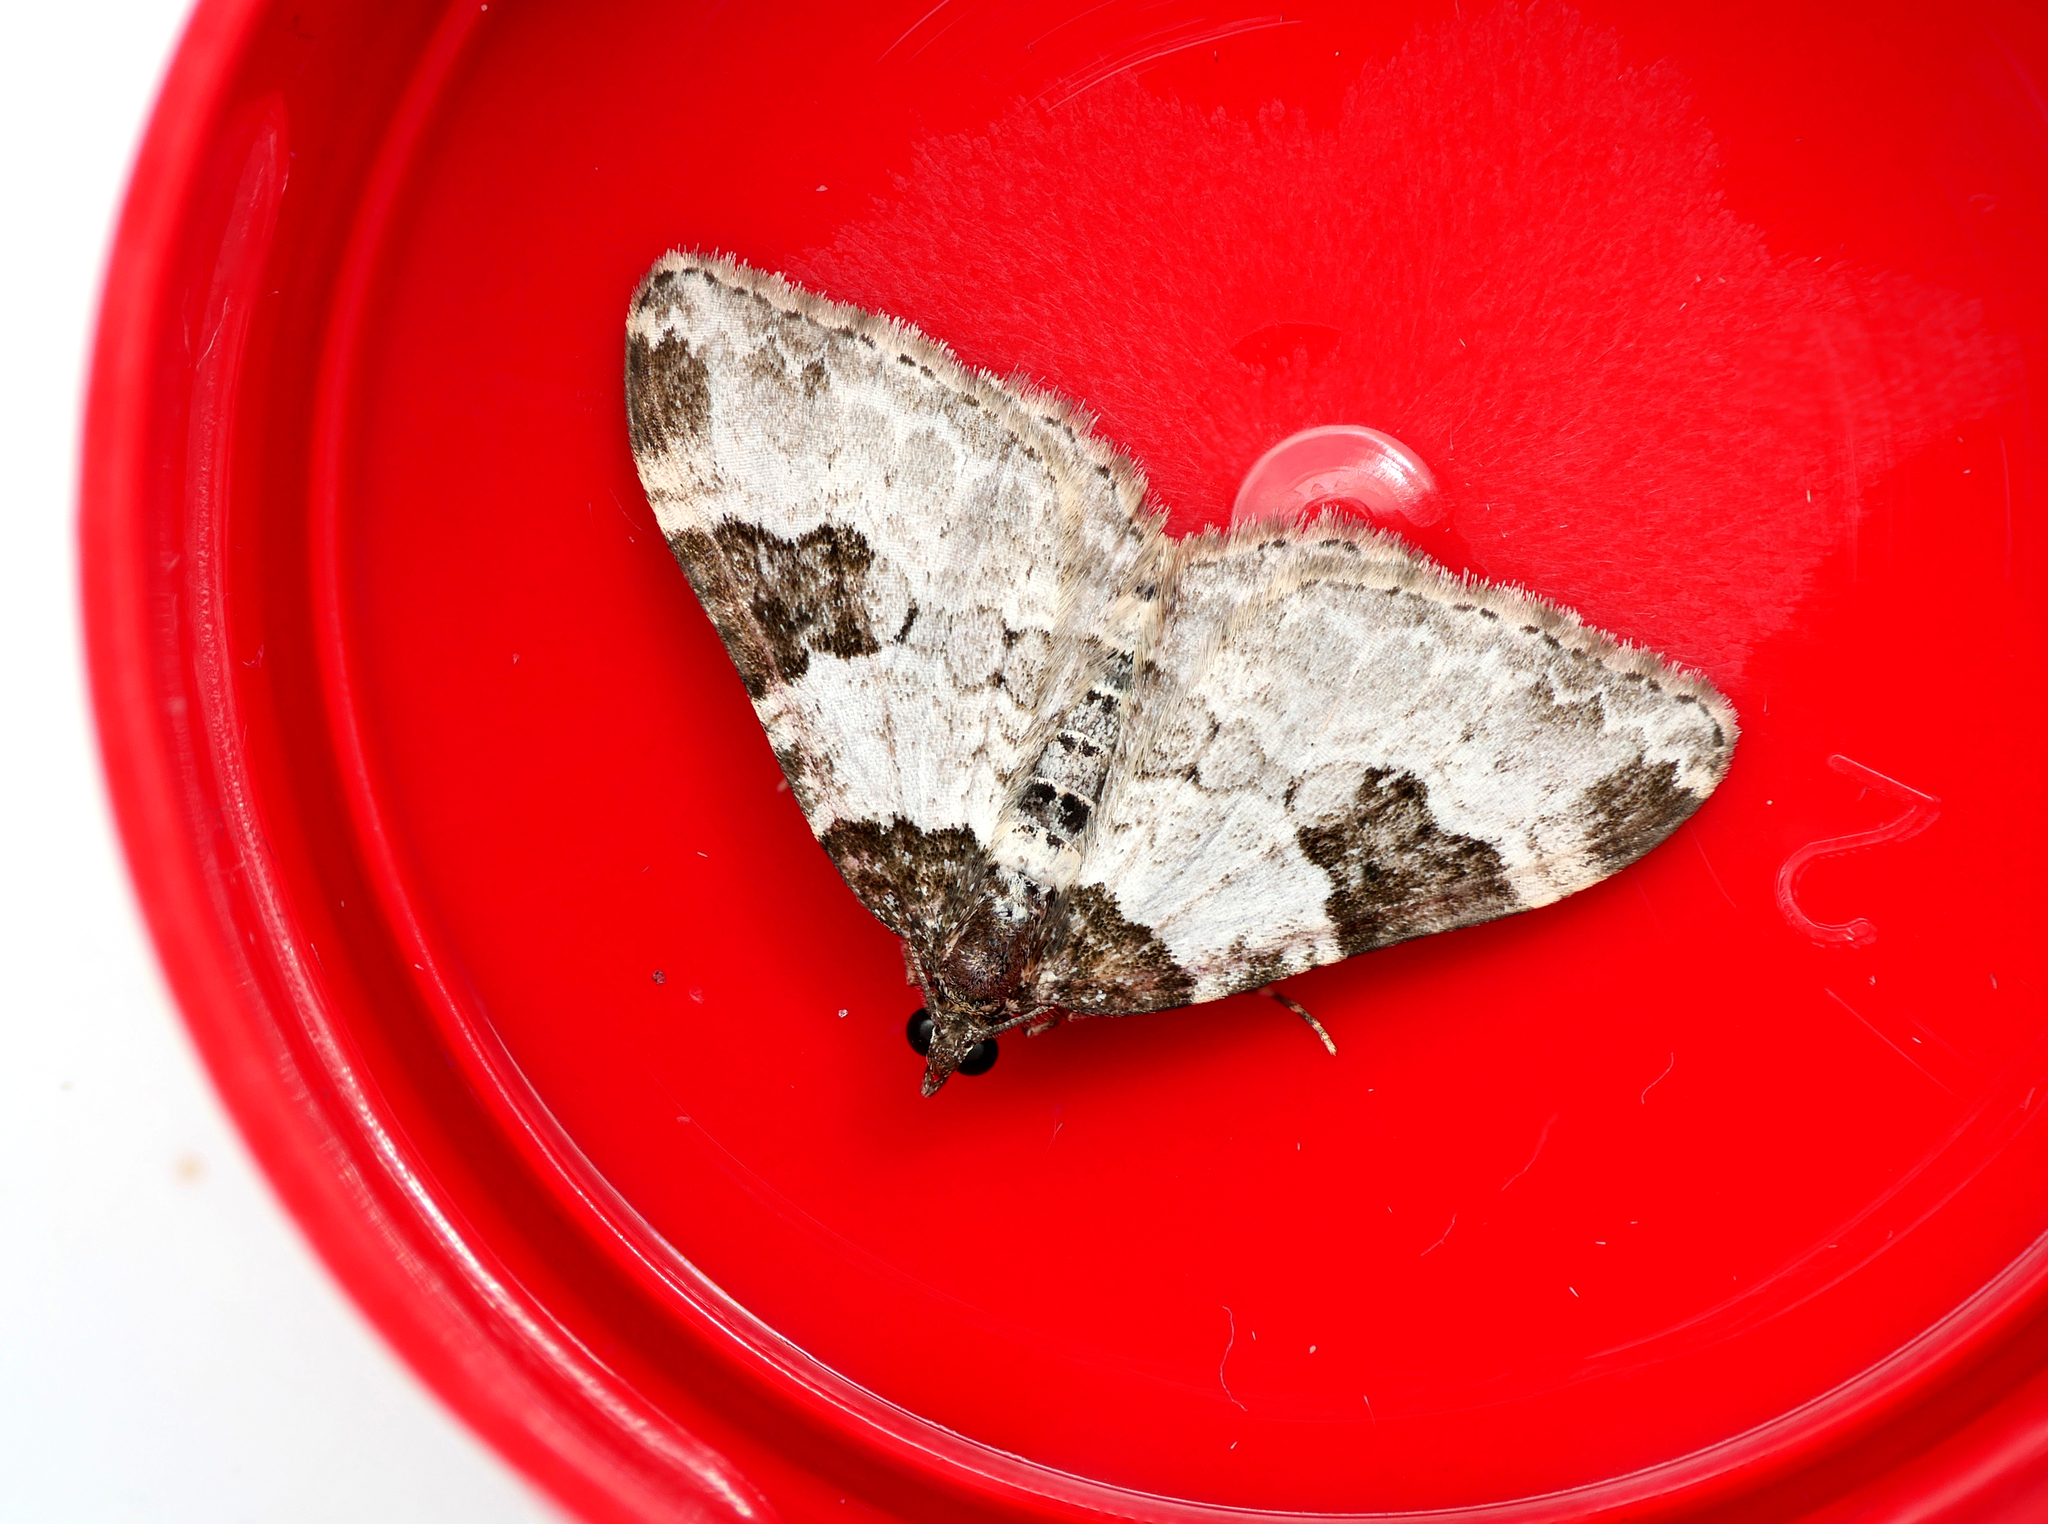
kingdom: Animalia
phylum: Arthropoda
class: Insecta
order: Lepidoptera
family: Geometridae
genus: Xanthorhoe
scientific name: Xanthorhoe fluctuata
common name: Garden carpet
